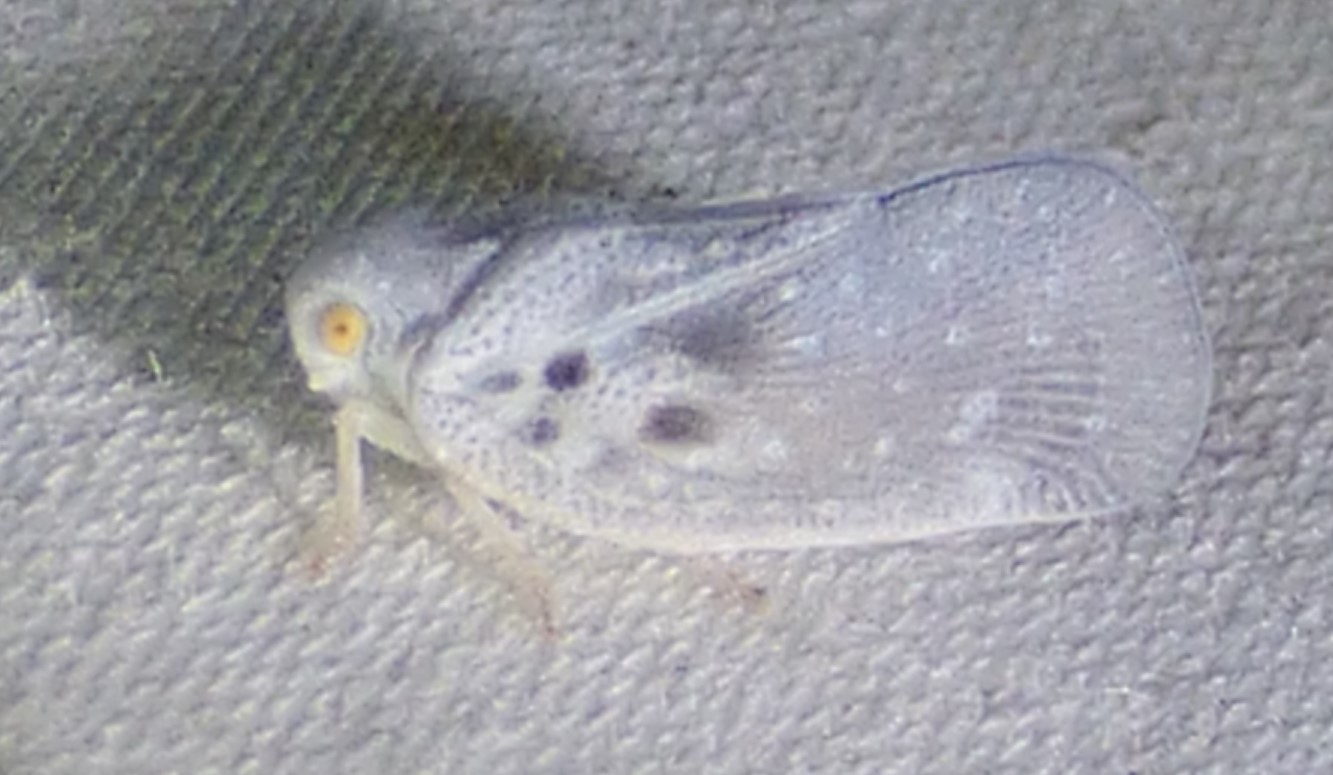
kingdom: Animalia
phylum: Arthropoda
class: Insecta
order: Hemiptera
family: Flatidae
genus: Metcalfa
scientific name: Metcalfa pruinosa
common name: Citrus flatid planthopper
